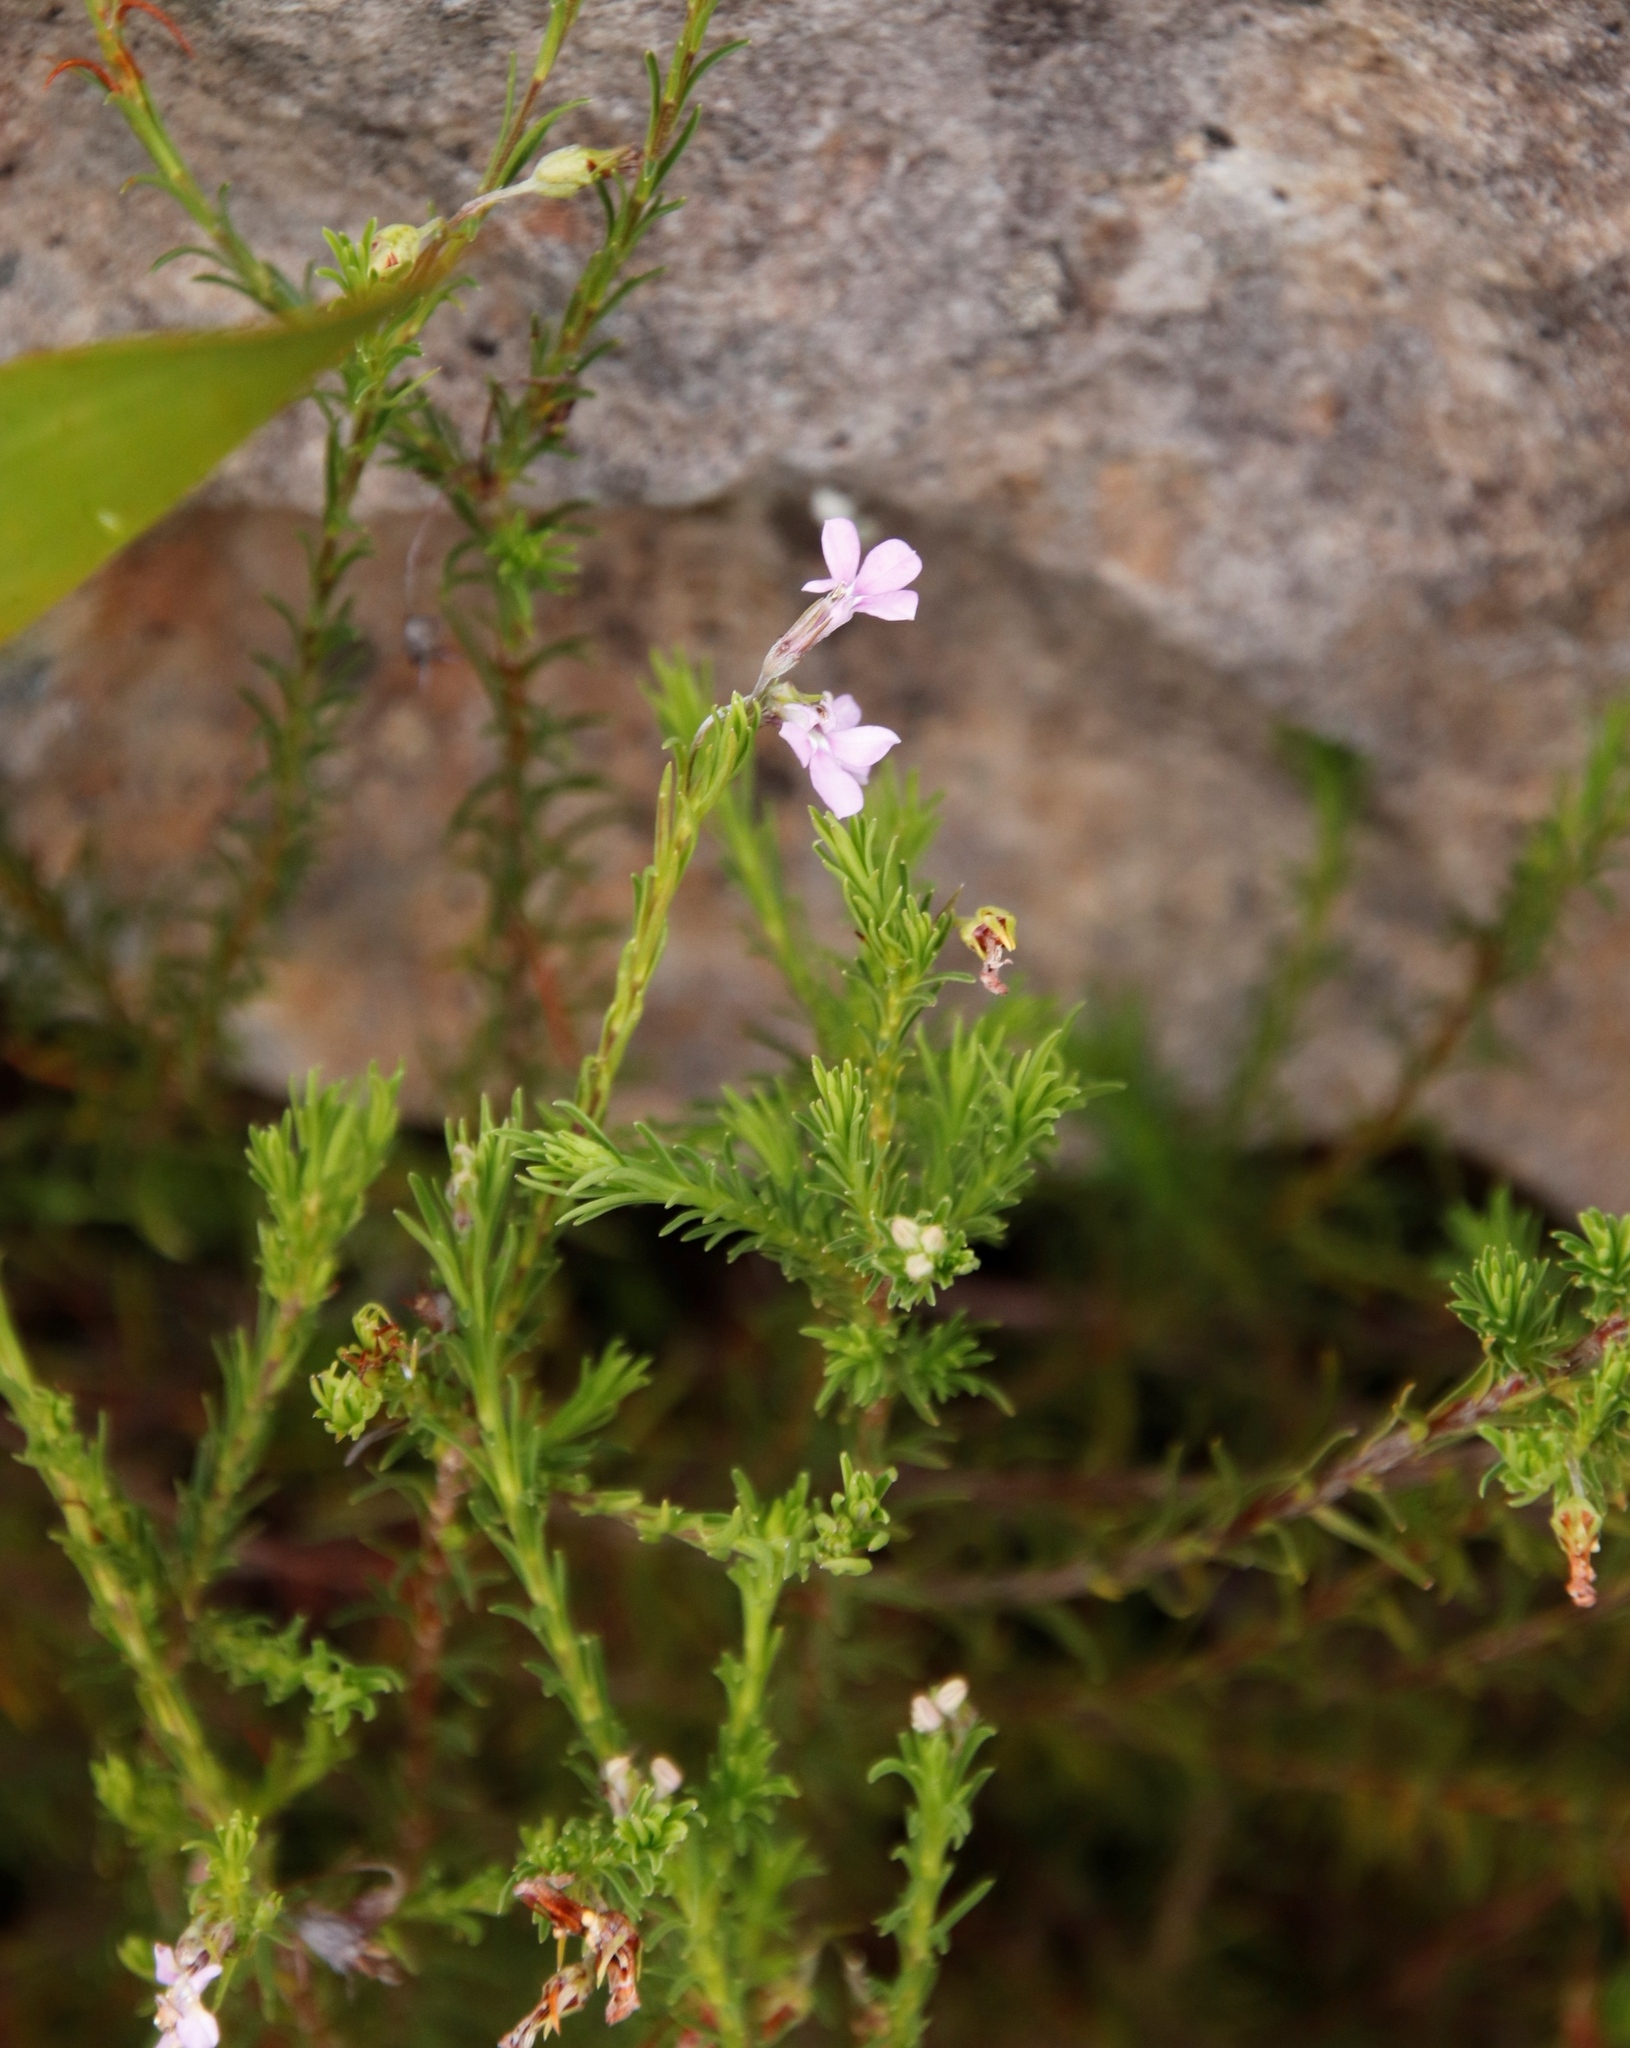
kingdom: Plantae
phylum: Tracheophyta
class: Magnoliopsida
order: Asterales
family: Campanulaceae
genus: Lobelia
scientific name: Lobelia pinifolia
